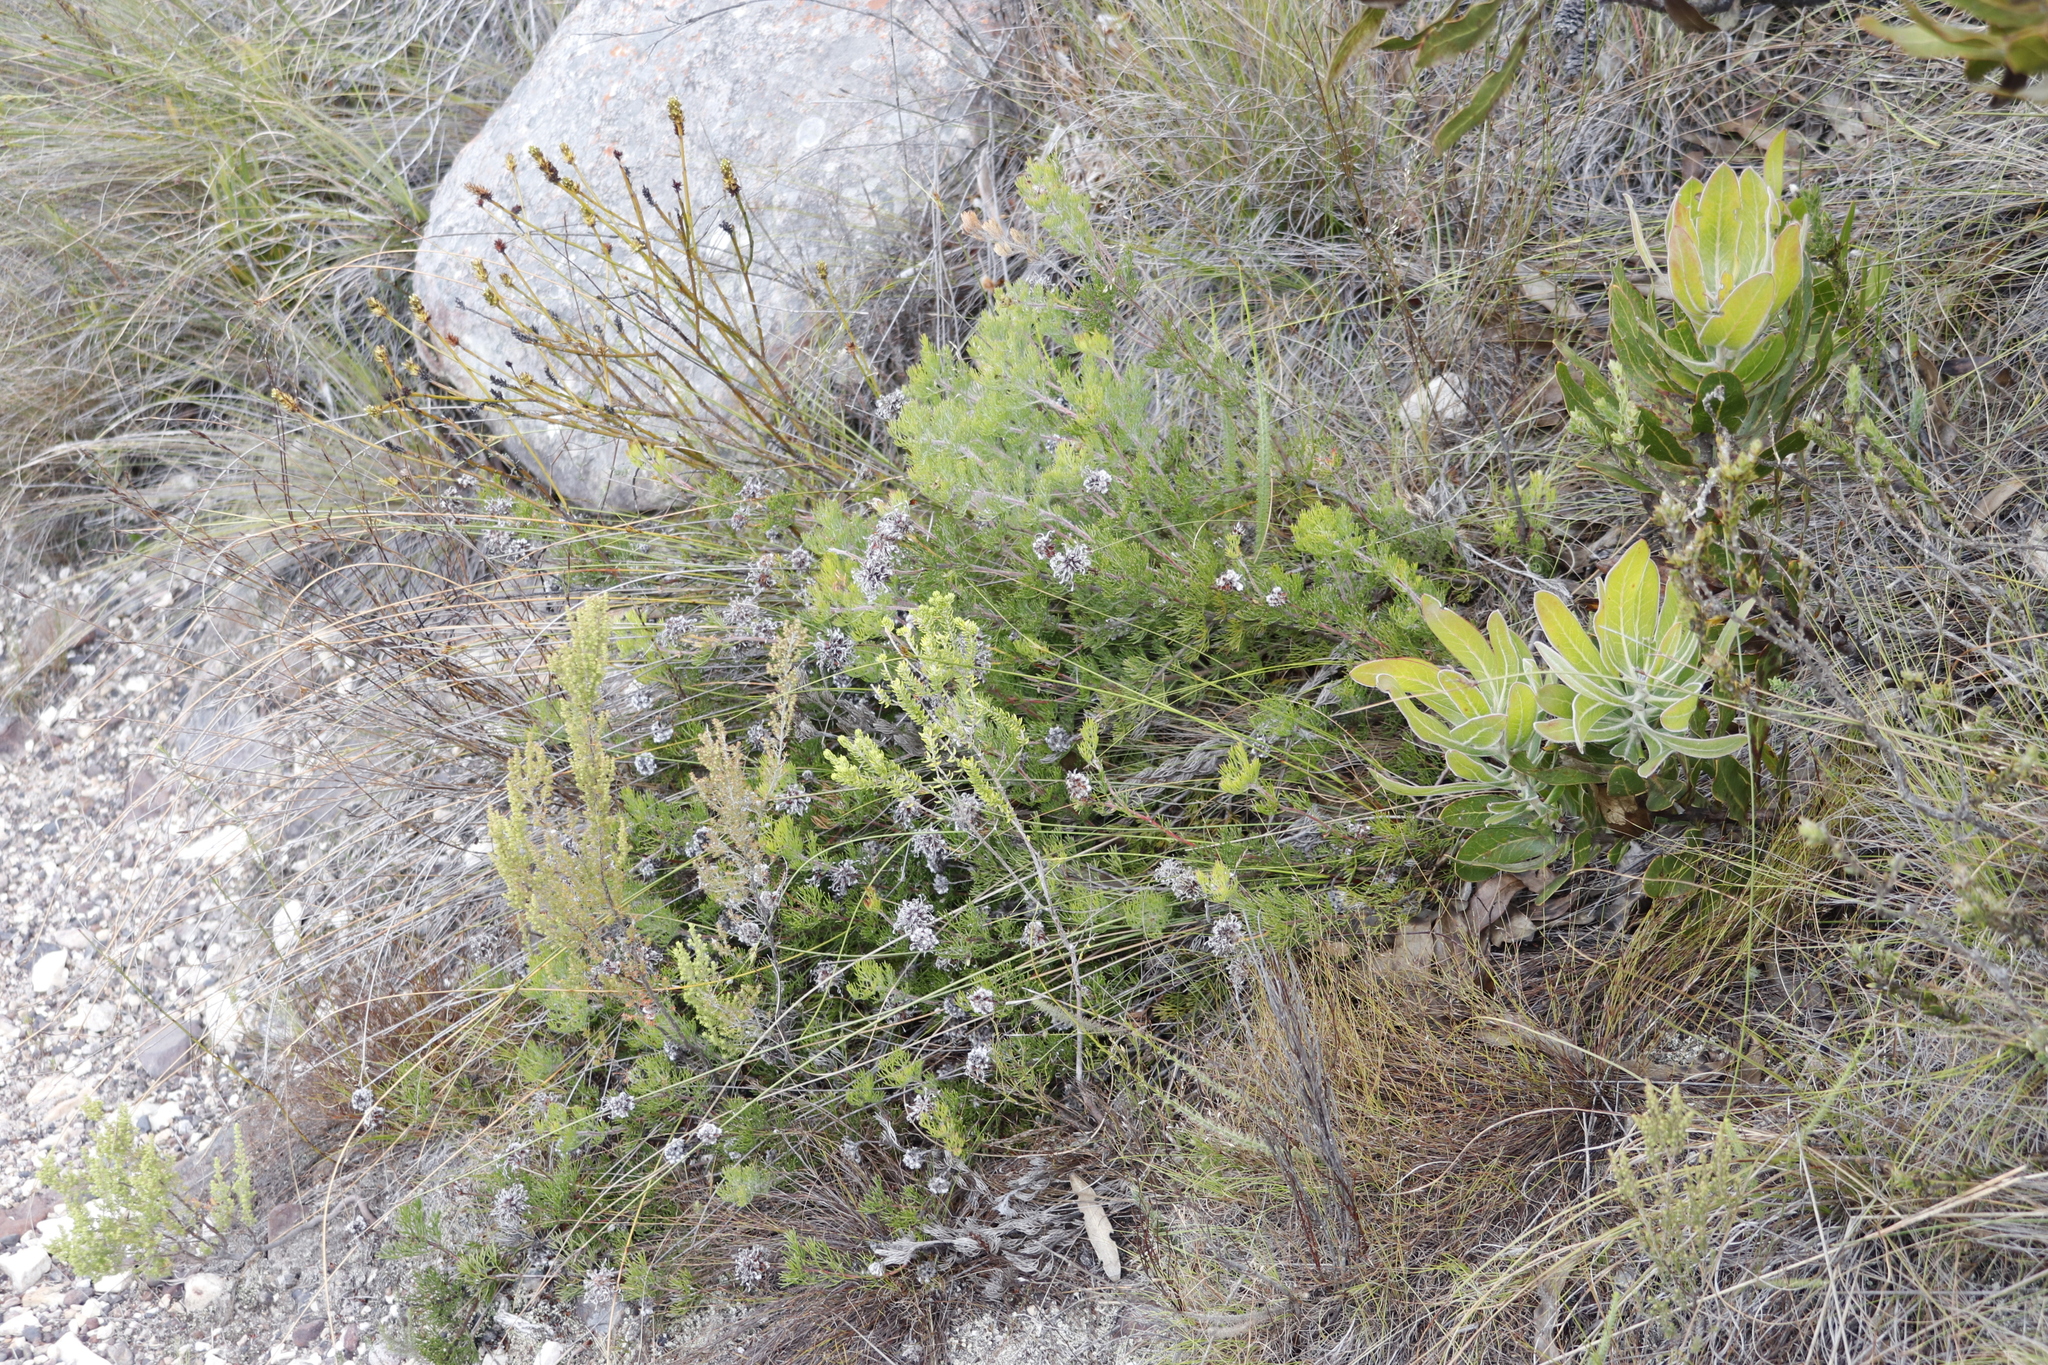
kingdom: Plantae
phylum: Tracheophyta
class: Magnoliopsida
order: Proteales
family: Proteaceae
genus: Serruria
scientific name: Serruria
